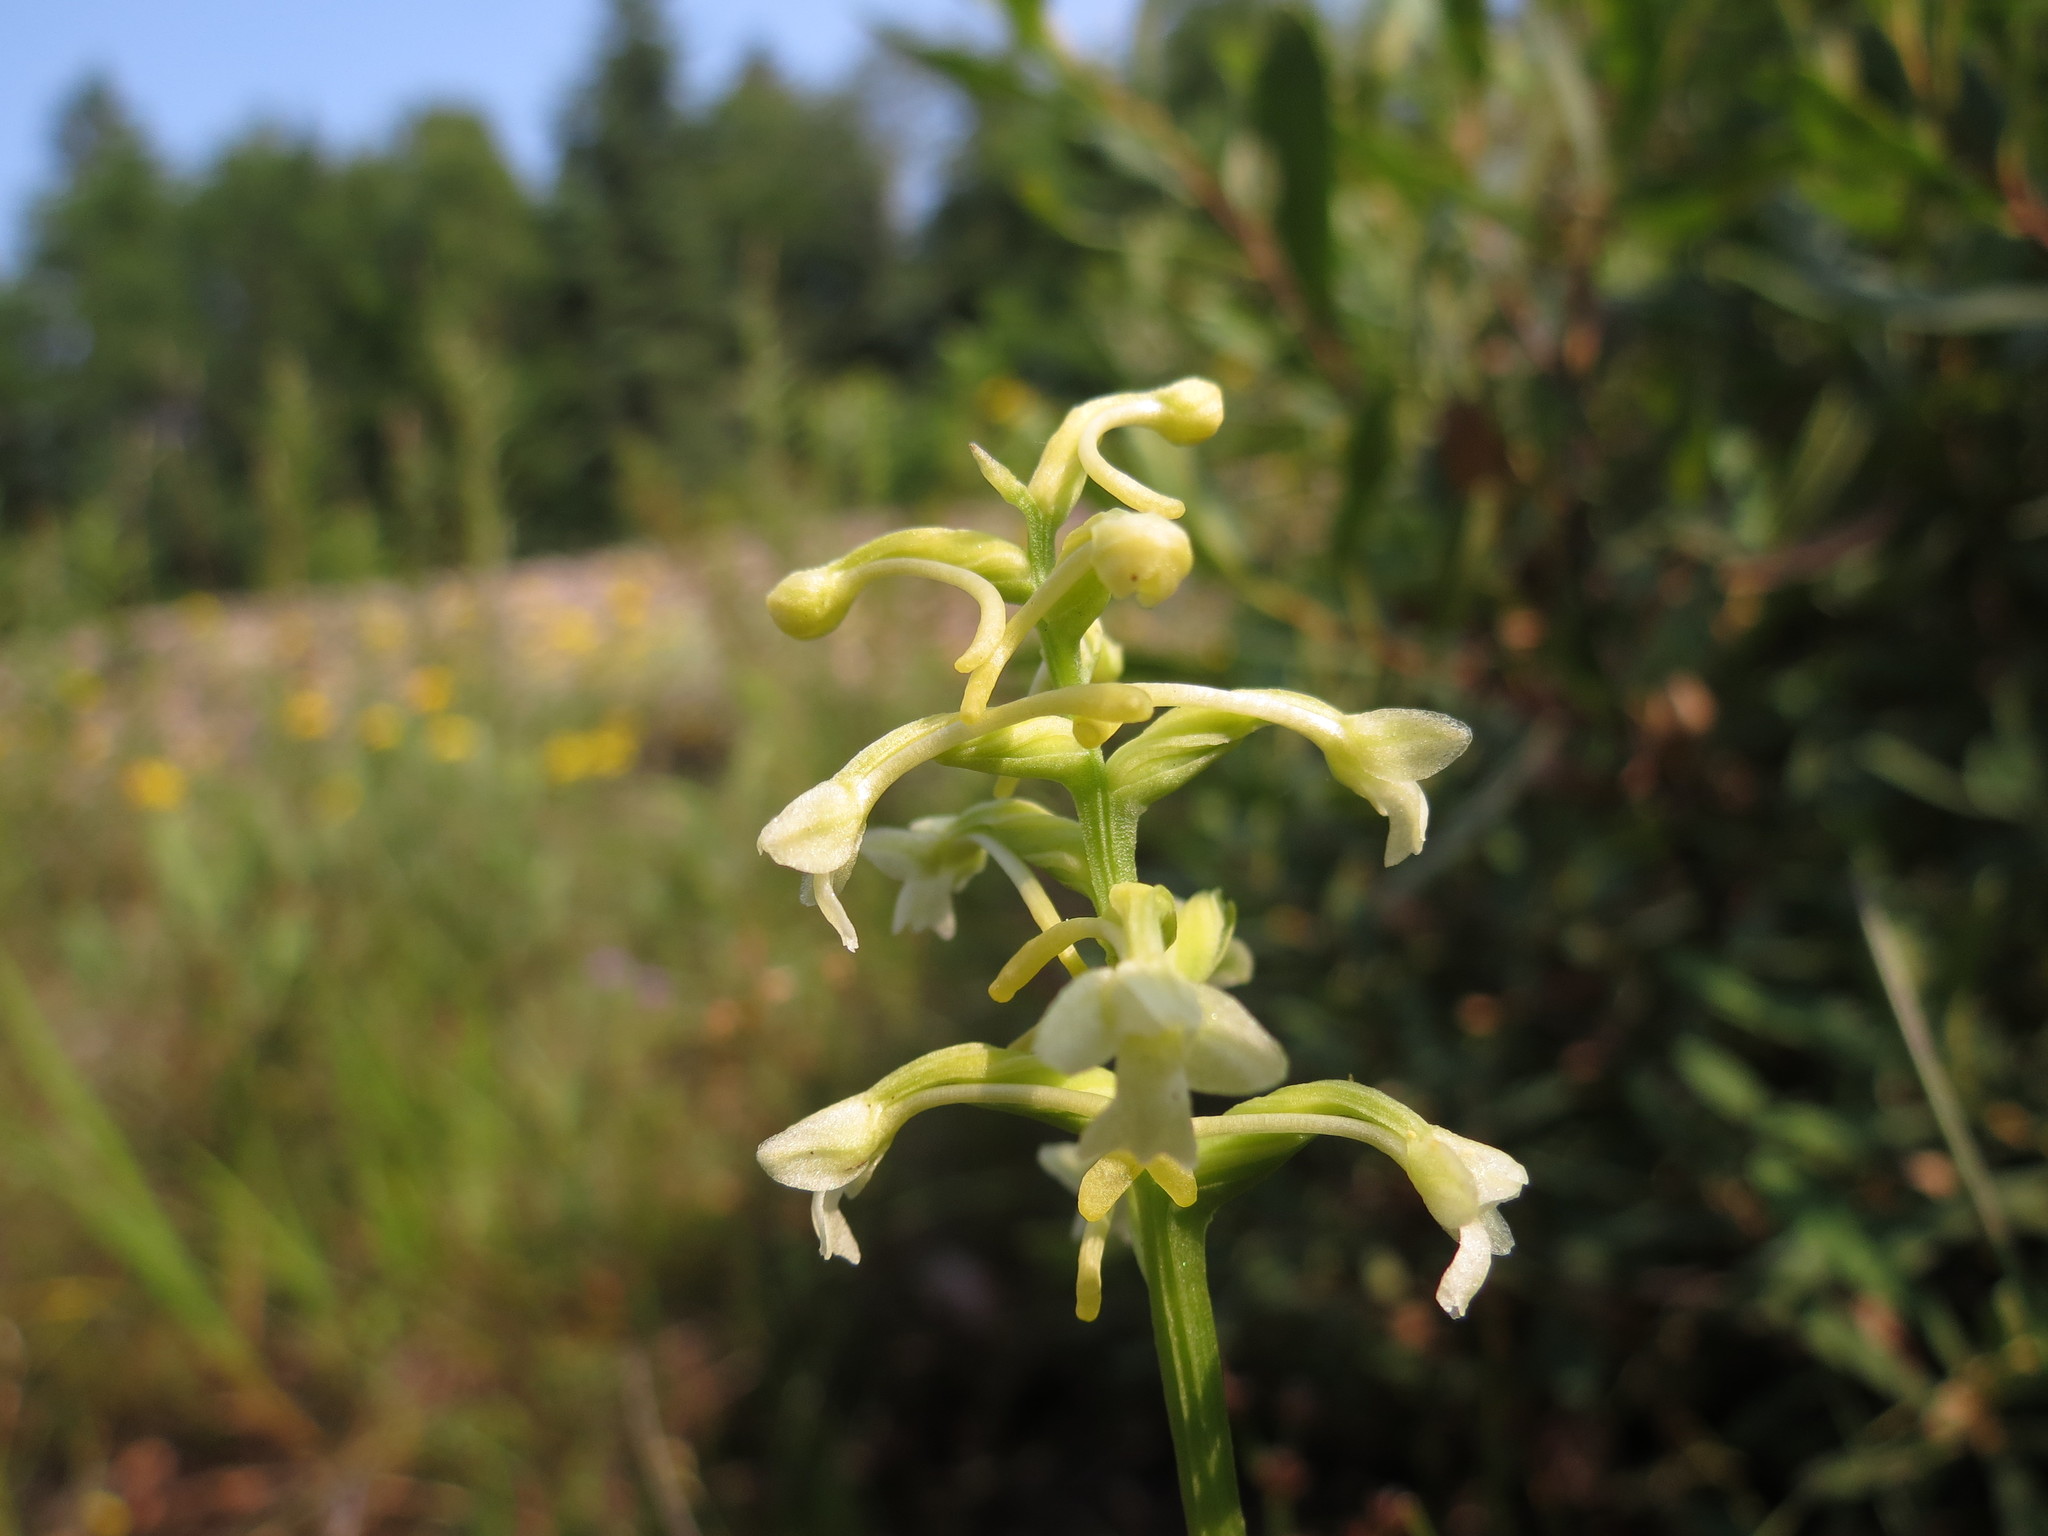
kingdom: Plantae
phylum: Tracheophyta
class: Liliopsida
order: Asparagales
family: Orchidaceae
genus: Platanthera
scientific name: Platanthera clavellata
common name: Club-spur orchid
